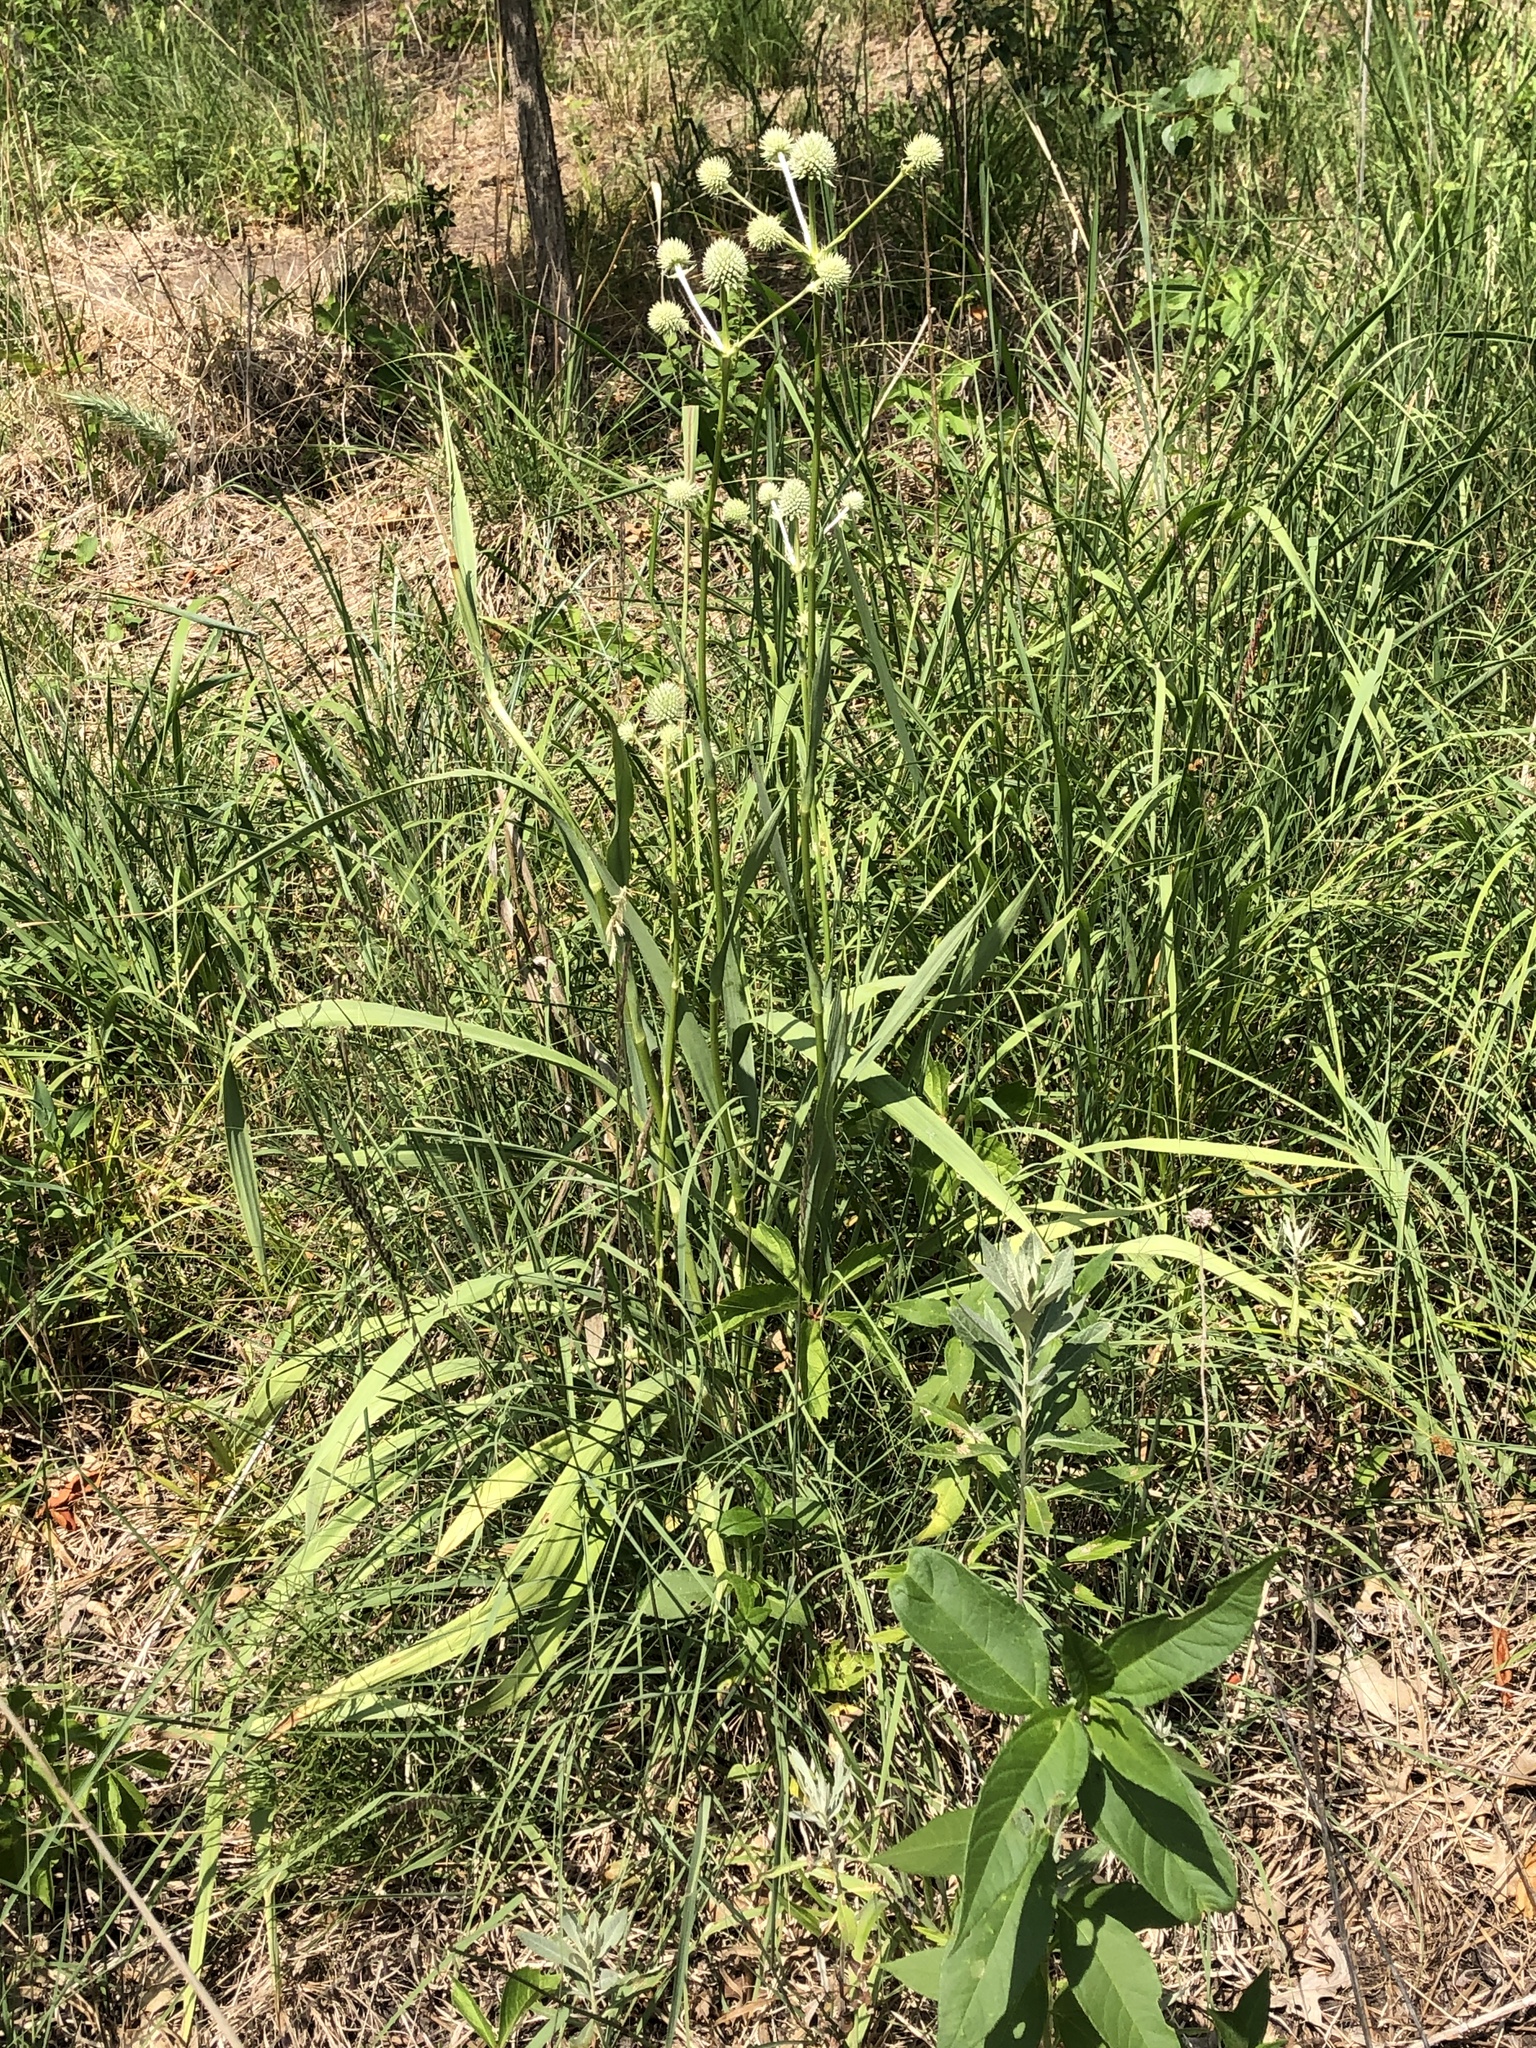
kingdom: Plantae
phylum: Tracheophyta
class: Magnoliopsida
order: Apiales
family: Apiaceae
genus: Eryngium
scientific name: Eryngium yuccifolium
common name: Button eryngo
